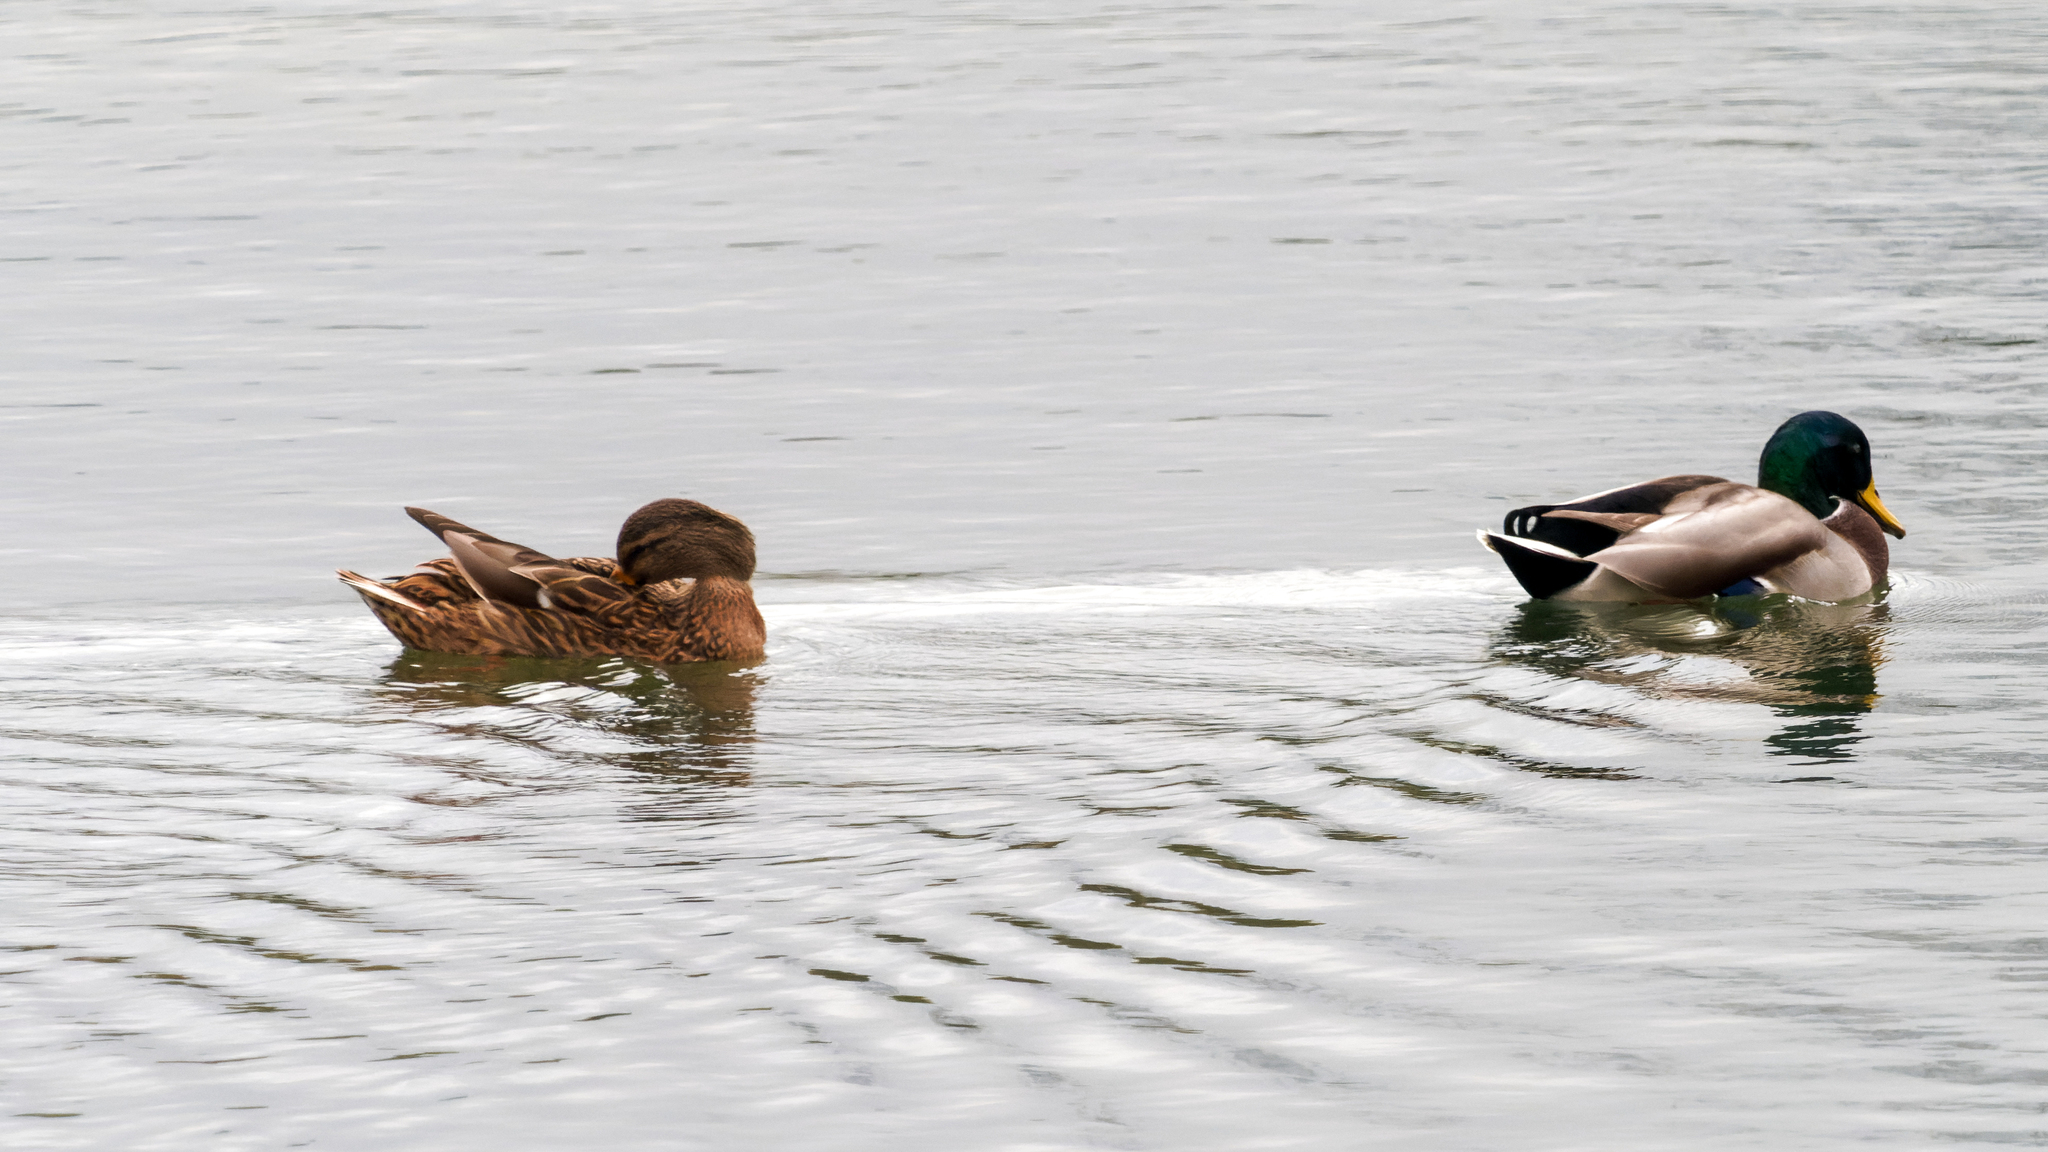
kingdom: Animalia
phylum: Chordata
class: Aves
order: Anseriformes
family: Anatidae
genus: Anas
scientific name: Anas platyrhynchos
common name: Mallard
